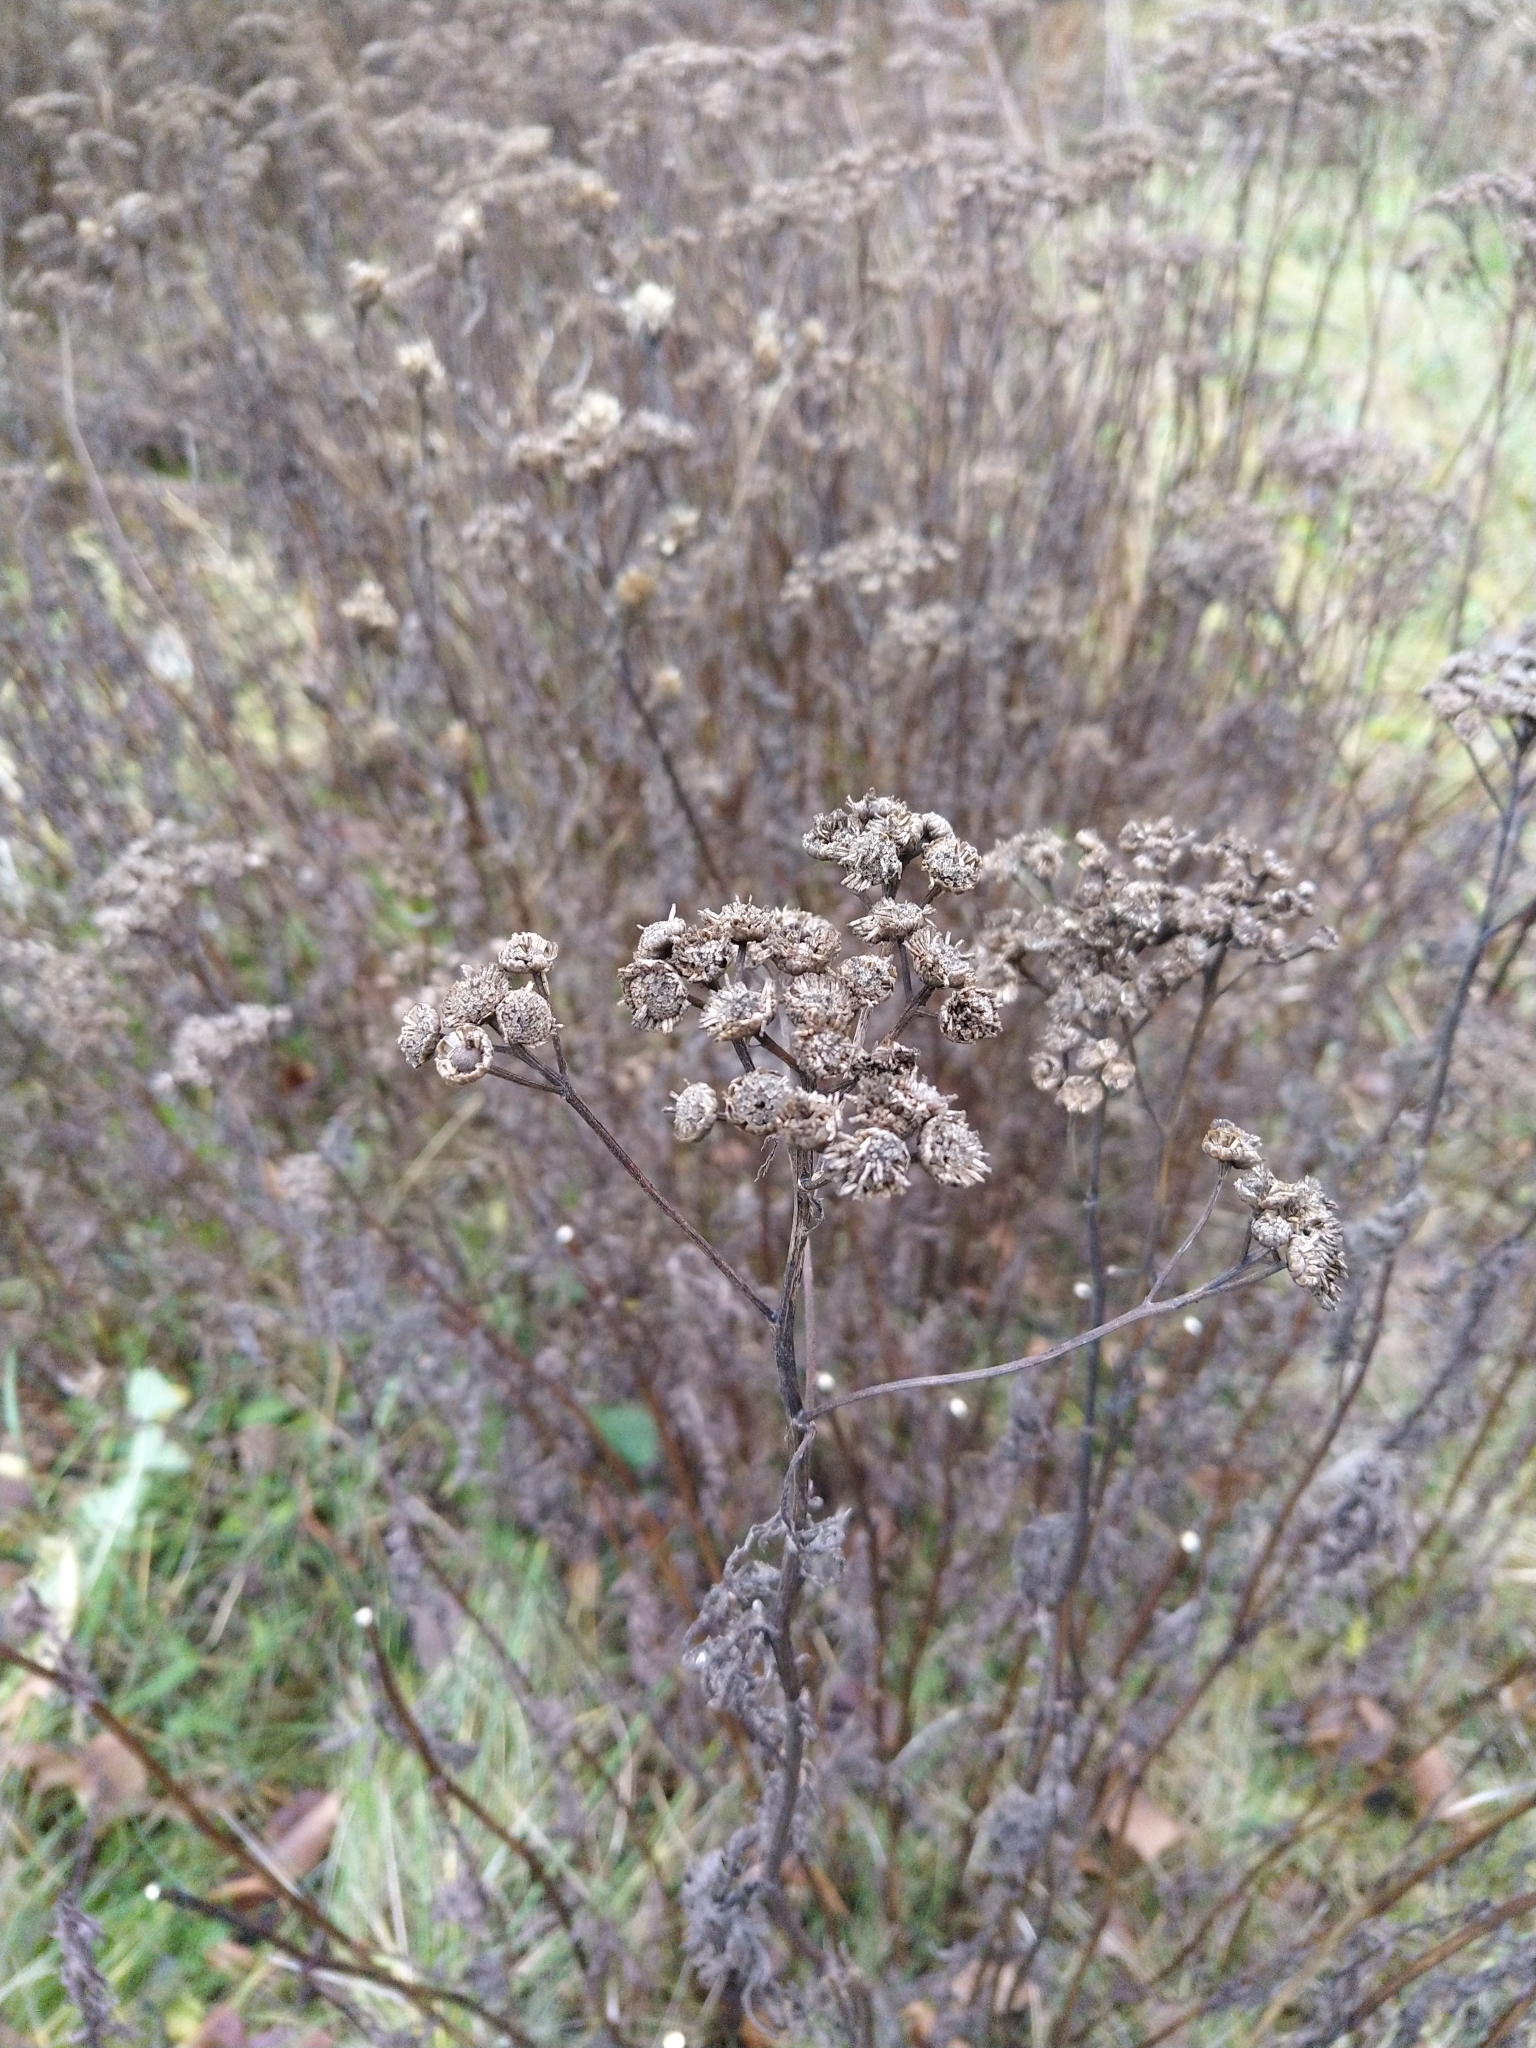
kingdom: Plantae
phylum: Tracheophyta
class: Magnoliopsida
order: Asterales
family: Asteraceae
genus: Tanacetum
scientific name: Tanacetum vulgare
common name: Common tansy
